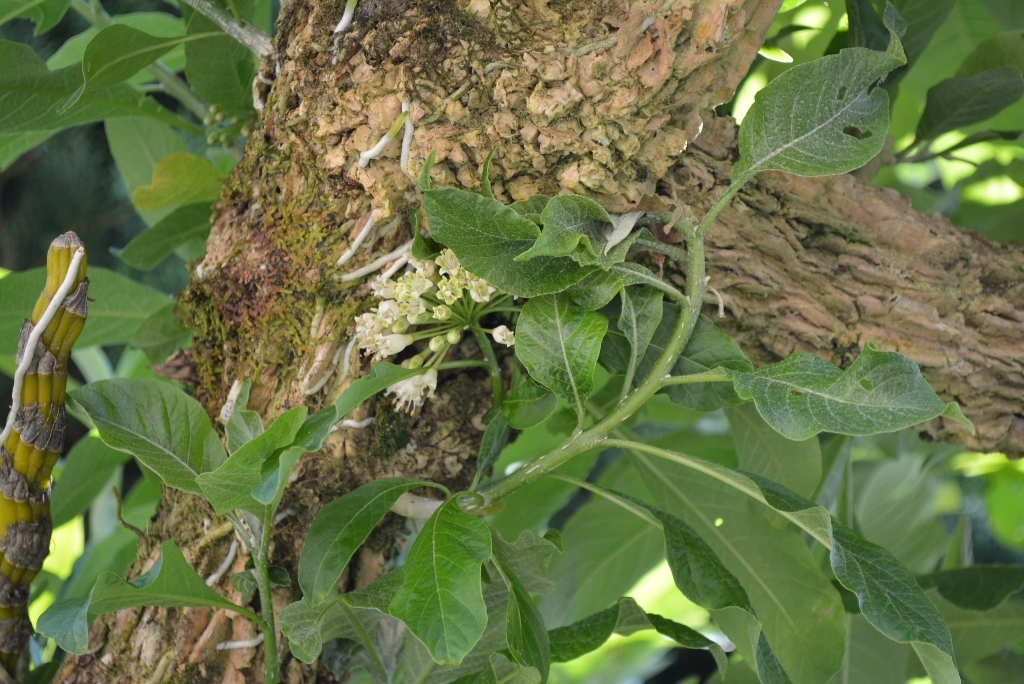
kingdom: Plantae
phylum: Tracheophyta
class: Magnoliopsida
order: Solanales
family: Solanaceae
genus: Iochroma
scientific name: Iochroma arborescens
